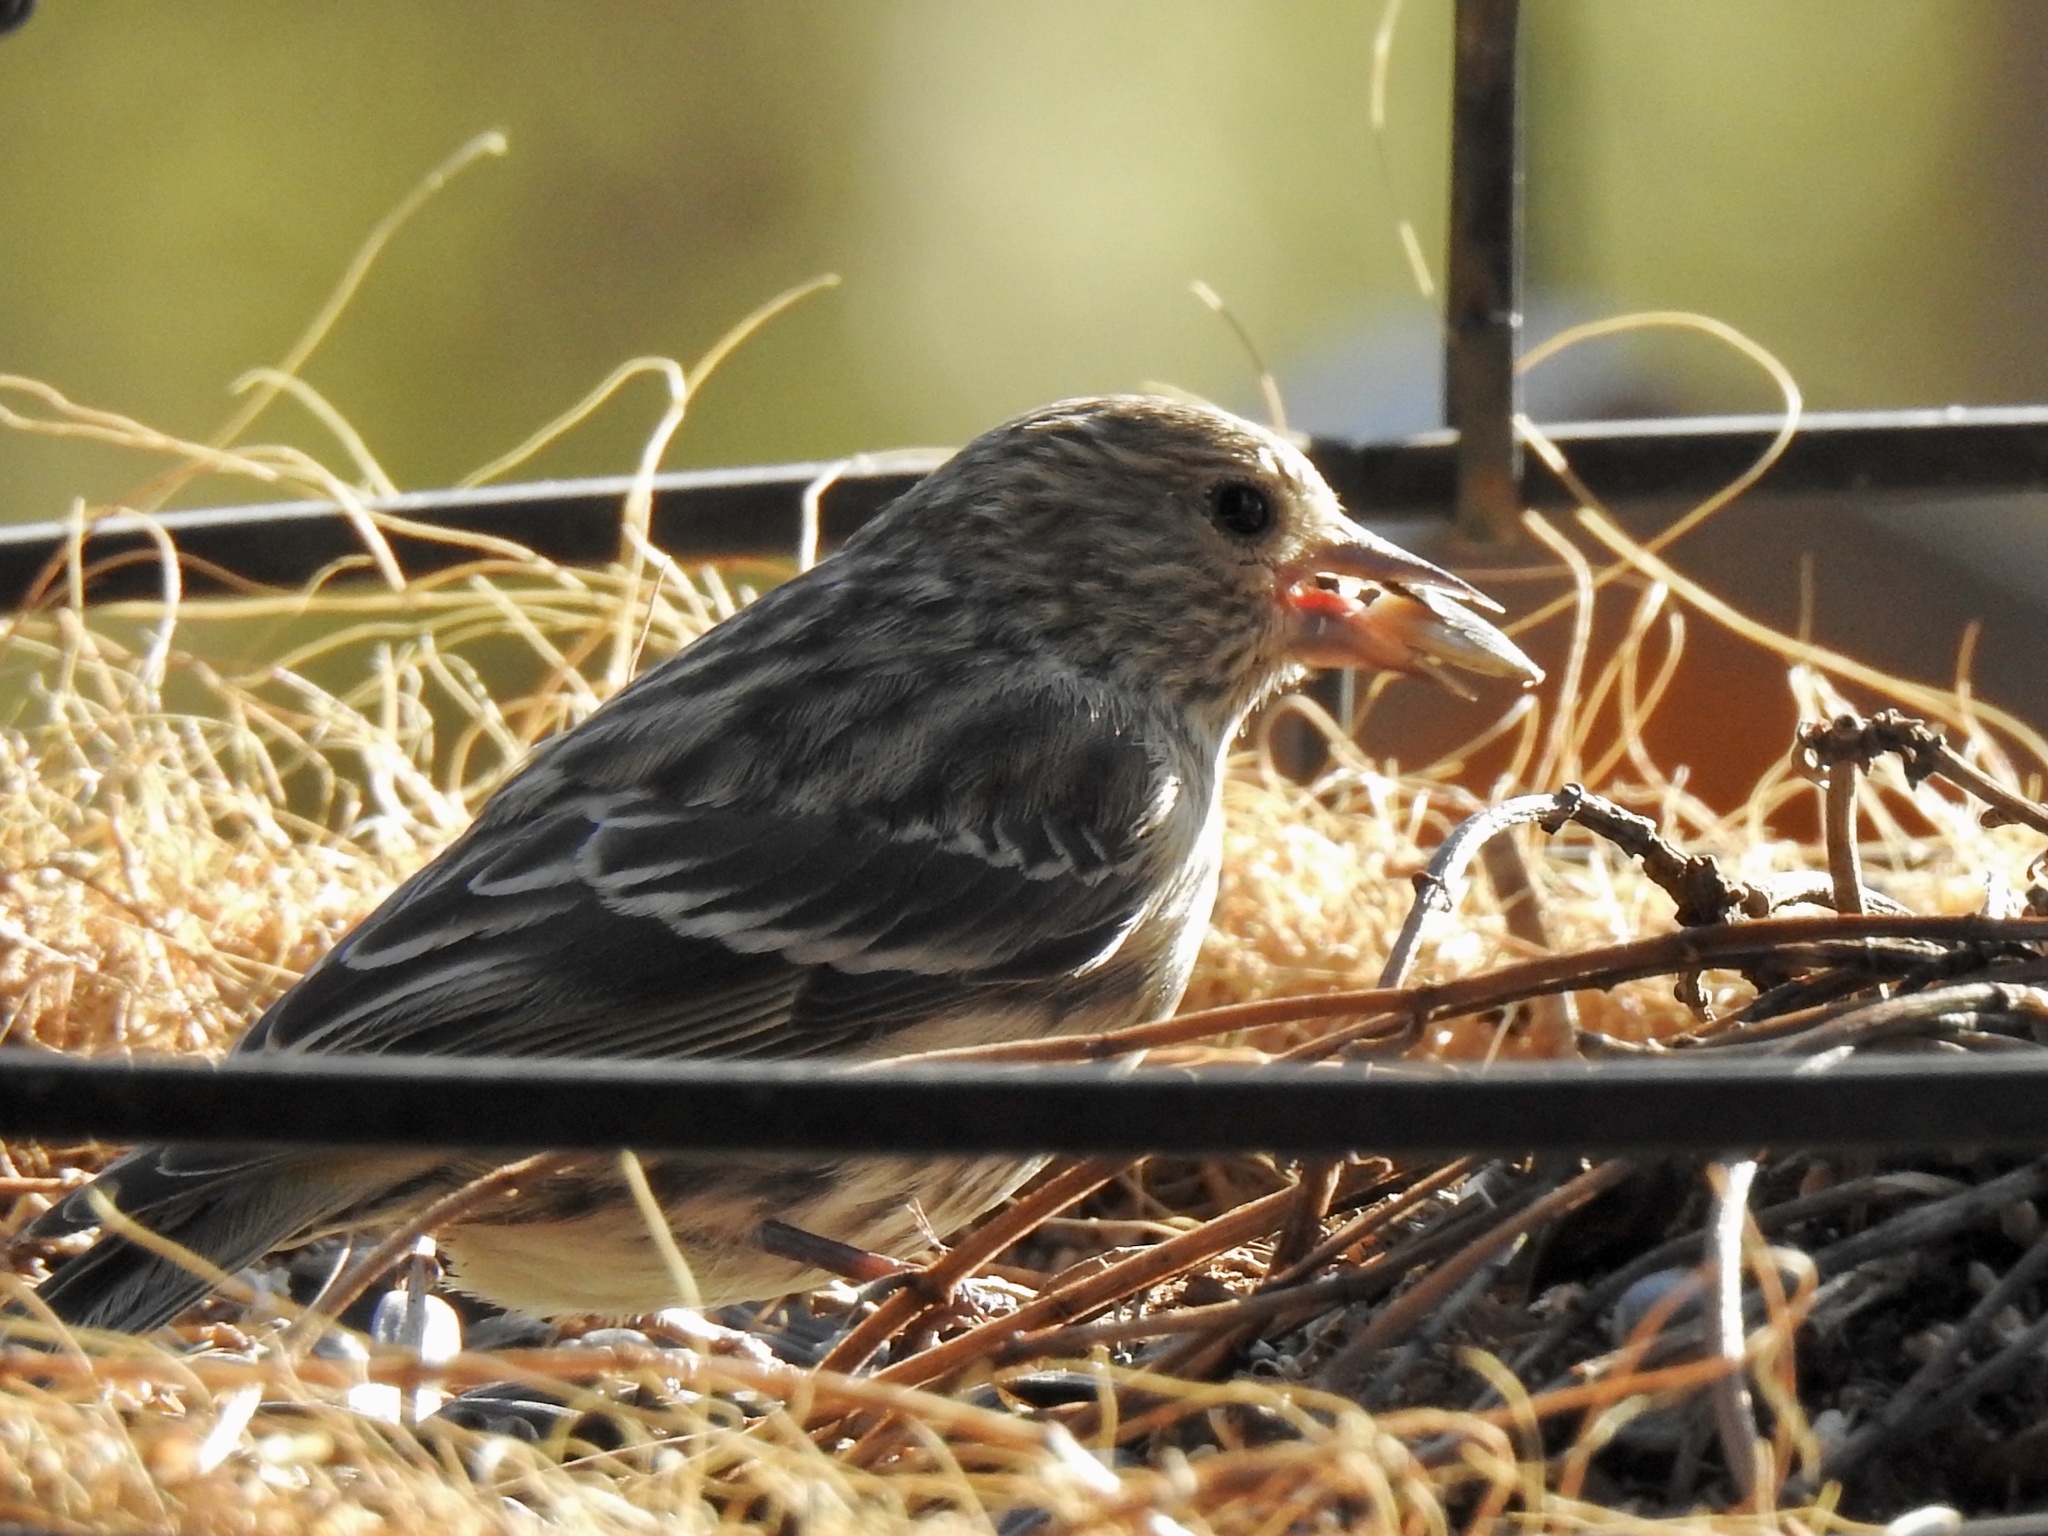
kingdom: Animalia
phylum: Chordata
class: Aves
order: Passeriformes
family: Fringillidae
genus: Spinus
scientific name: Spinus pinus
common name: Pine siskin
